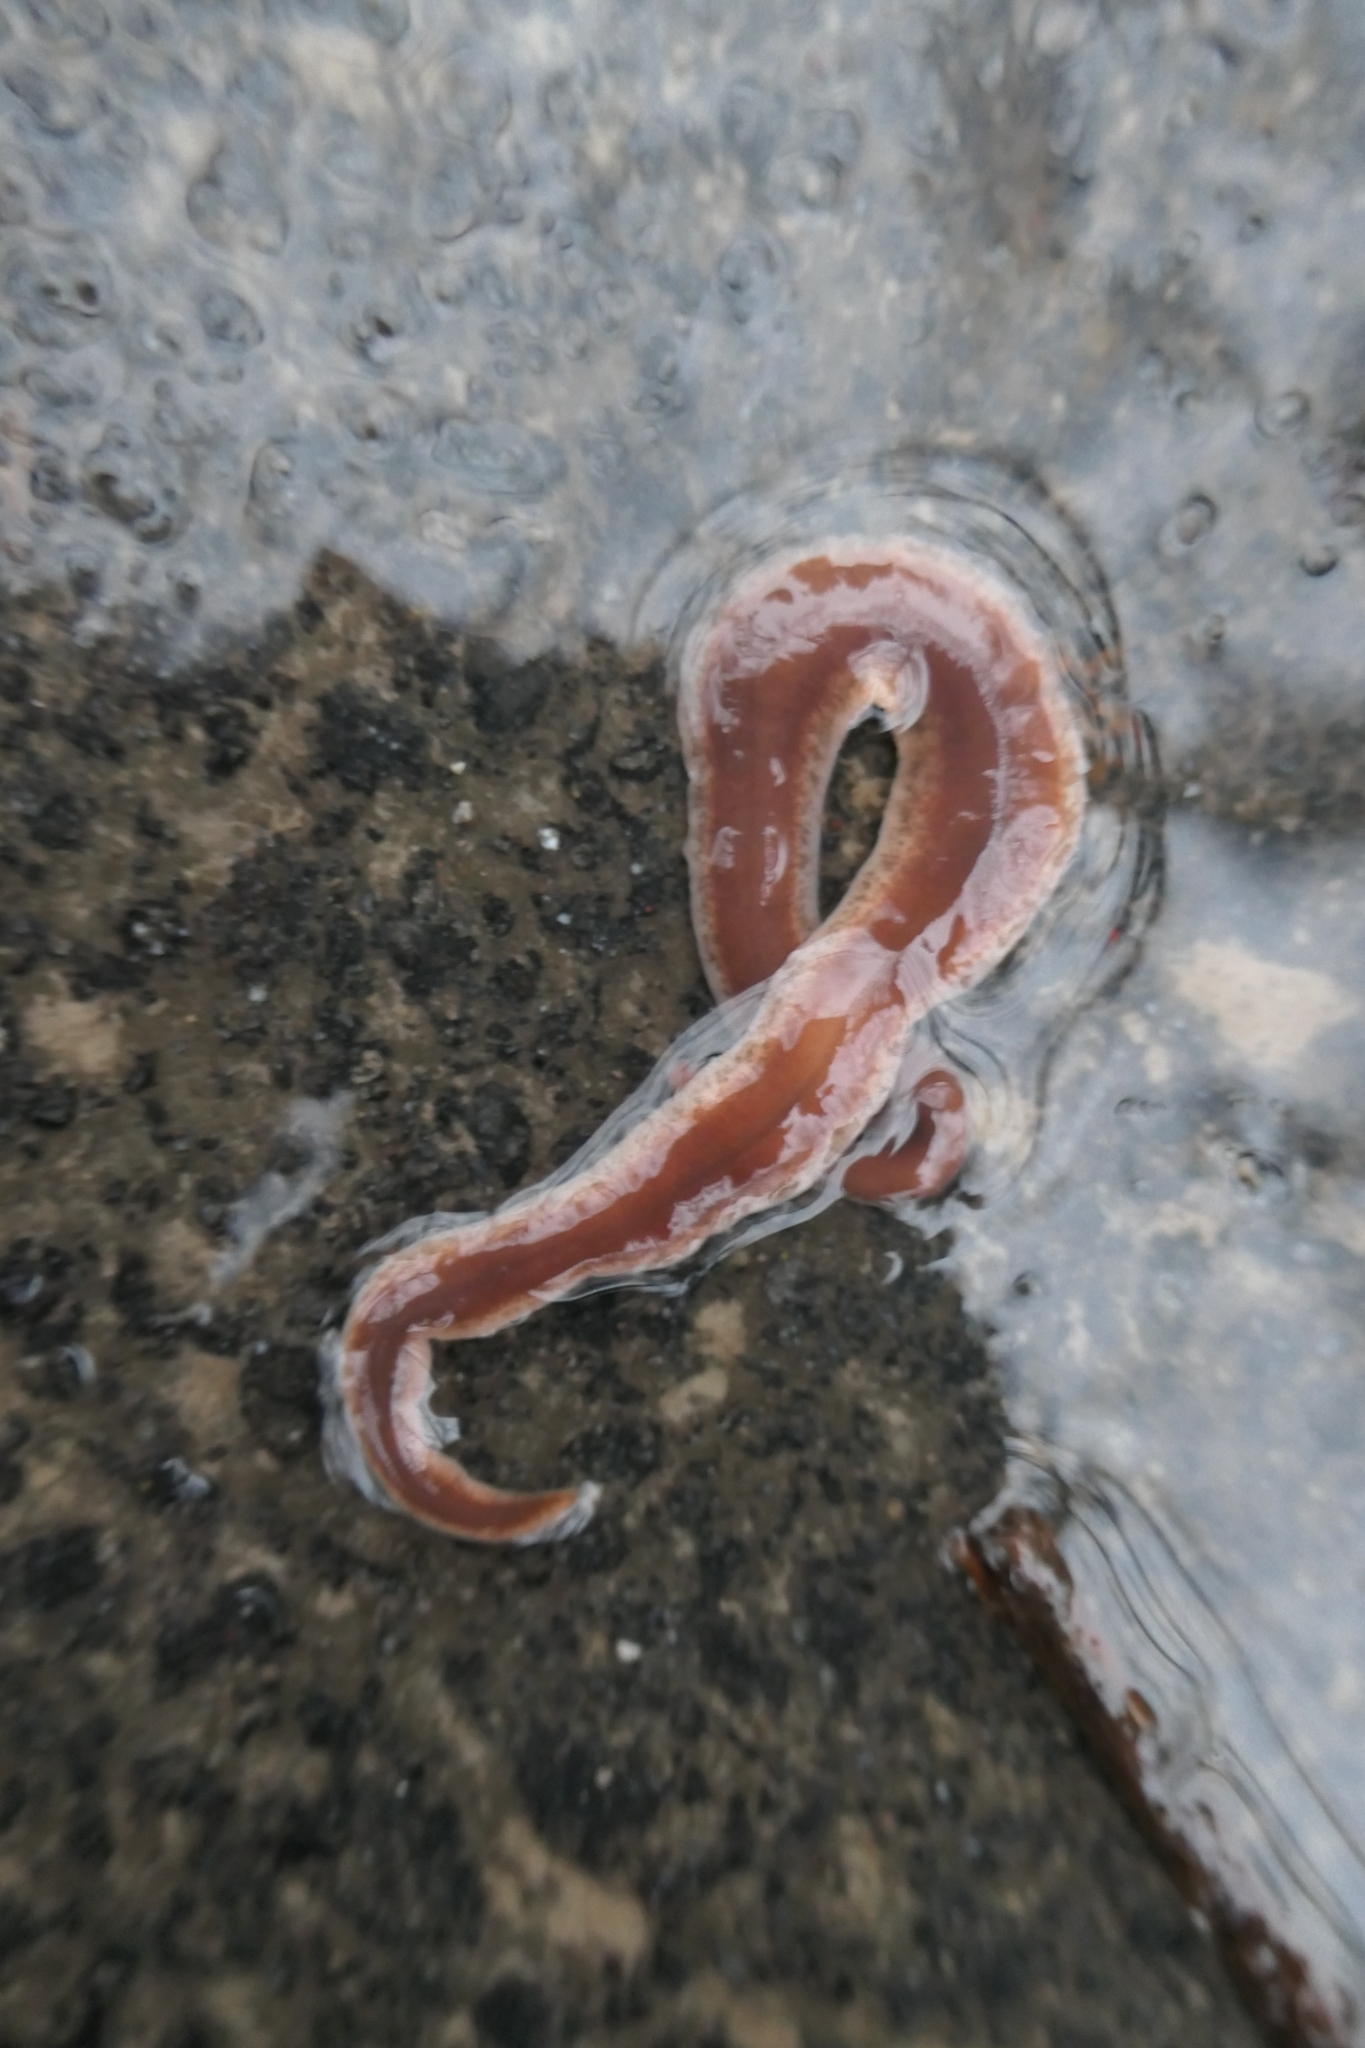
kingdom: Animalia
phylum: Platyhelminthes
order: Tricladida
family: Geoplanidae
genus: Arthurdendyus
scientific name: Arthurdendyus triangulatus
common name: New zealand flatworm
